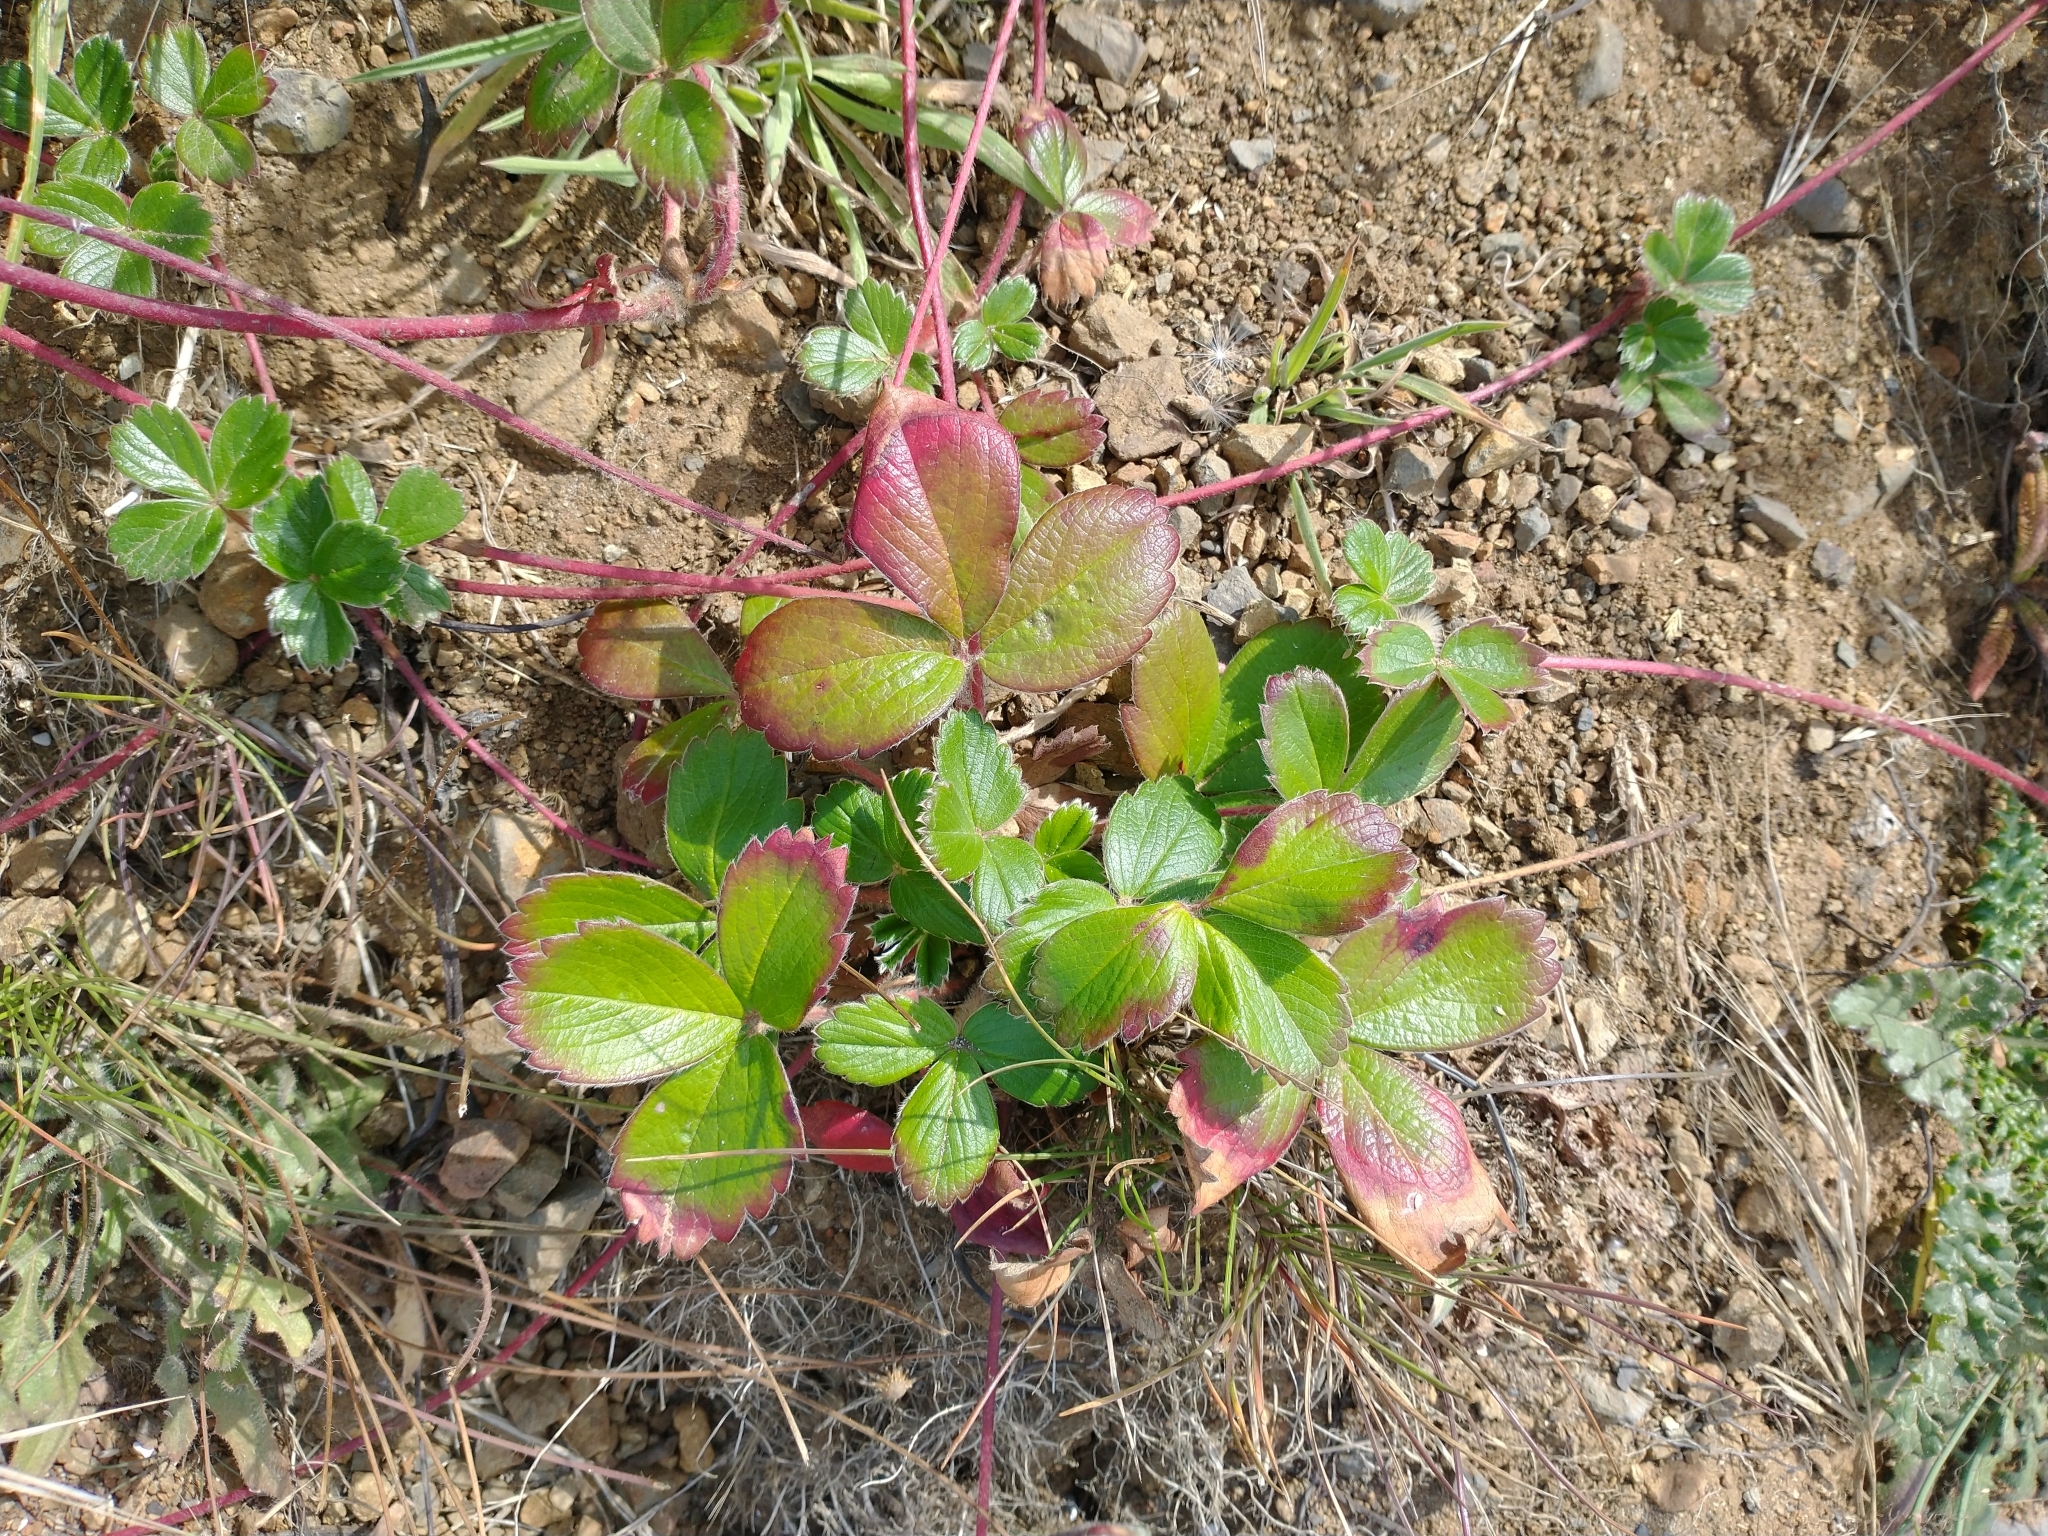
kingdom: Plantae
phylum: Tracheophyta
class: Magnoliopsida
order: Rosales
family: Rosaceae
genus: Fragaria
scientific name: Fragaria chiloensis
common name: Beach strawberry
